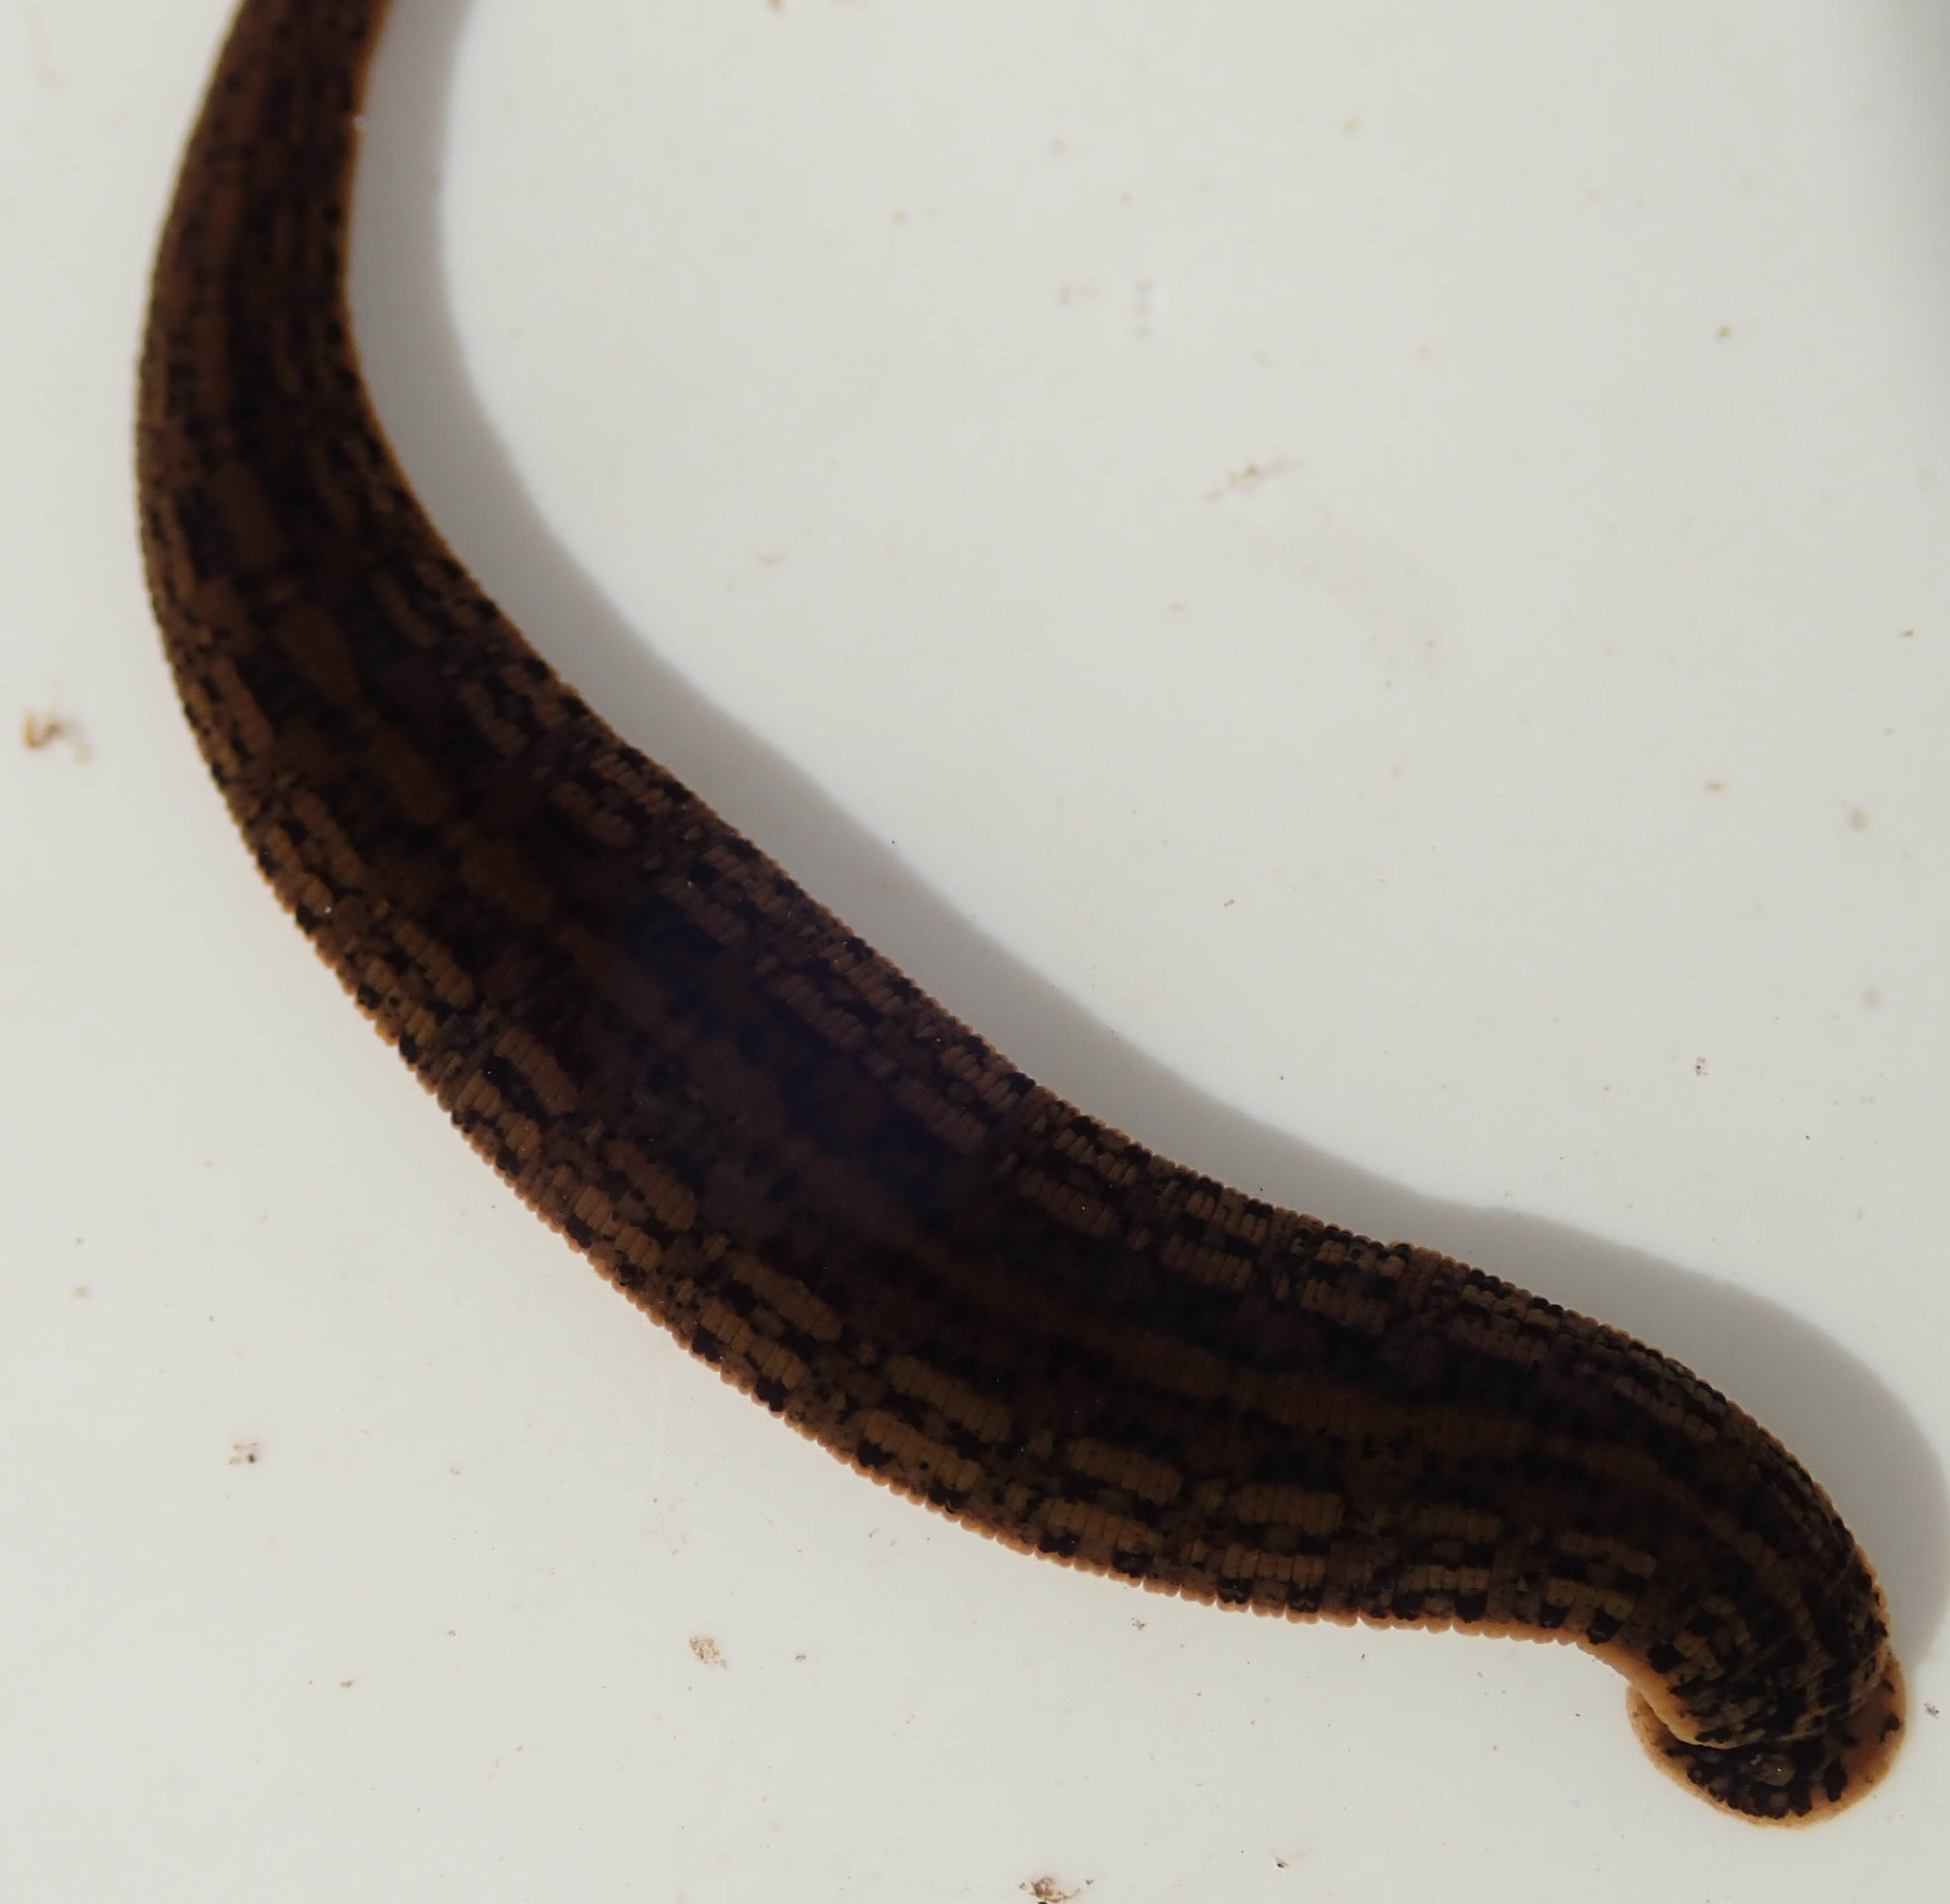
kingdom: Animalia
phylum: Annelida
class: Clitellata
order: Arhynchobdellida
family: Hirudinidae
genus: Asiaticobdella
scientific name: Asiaticobdella fenestrata
